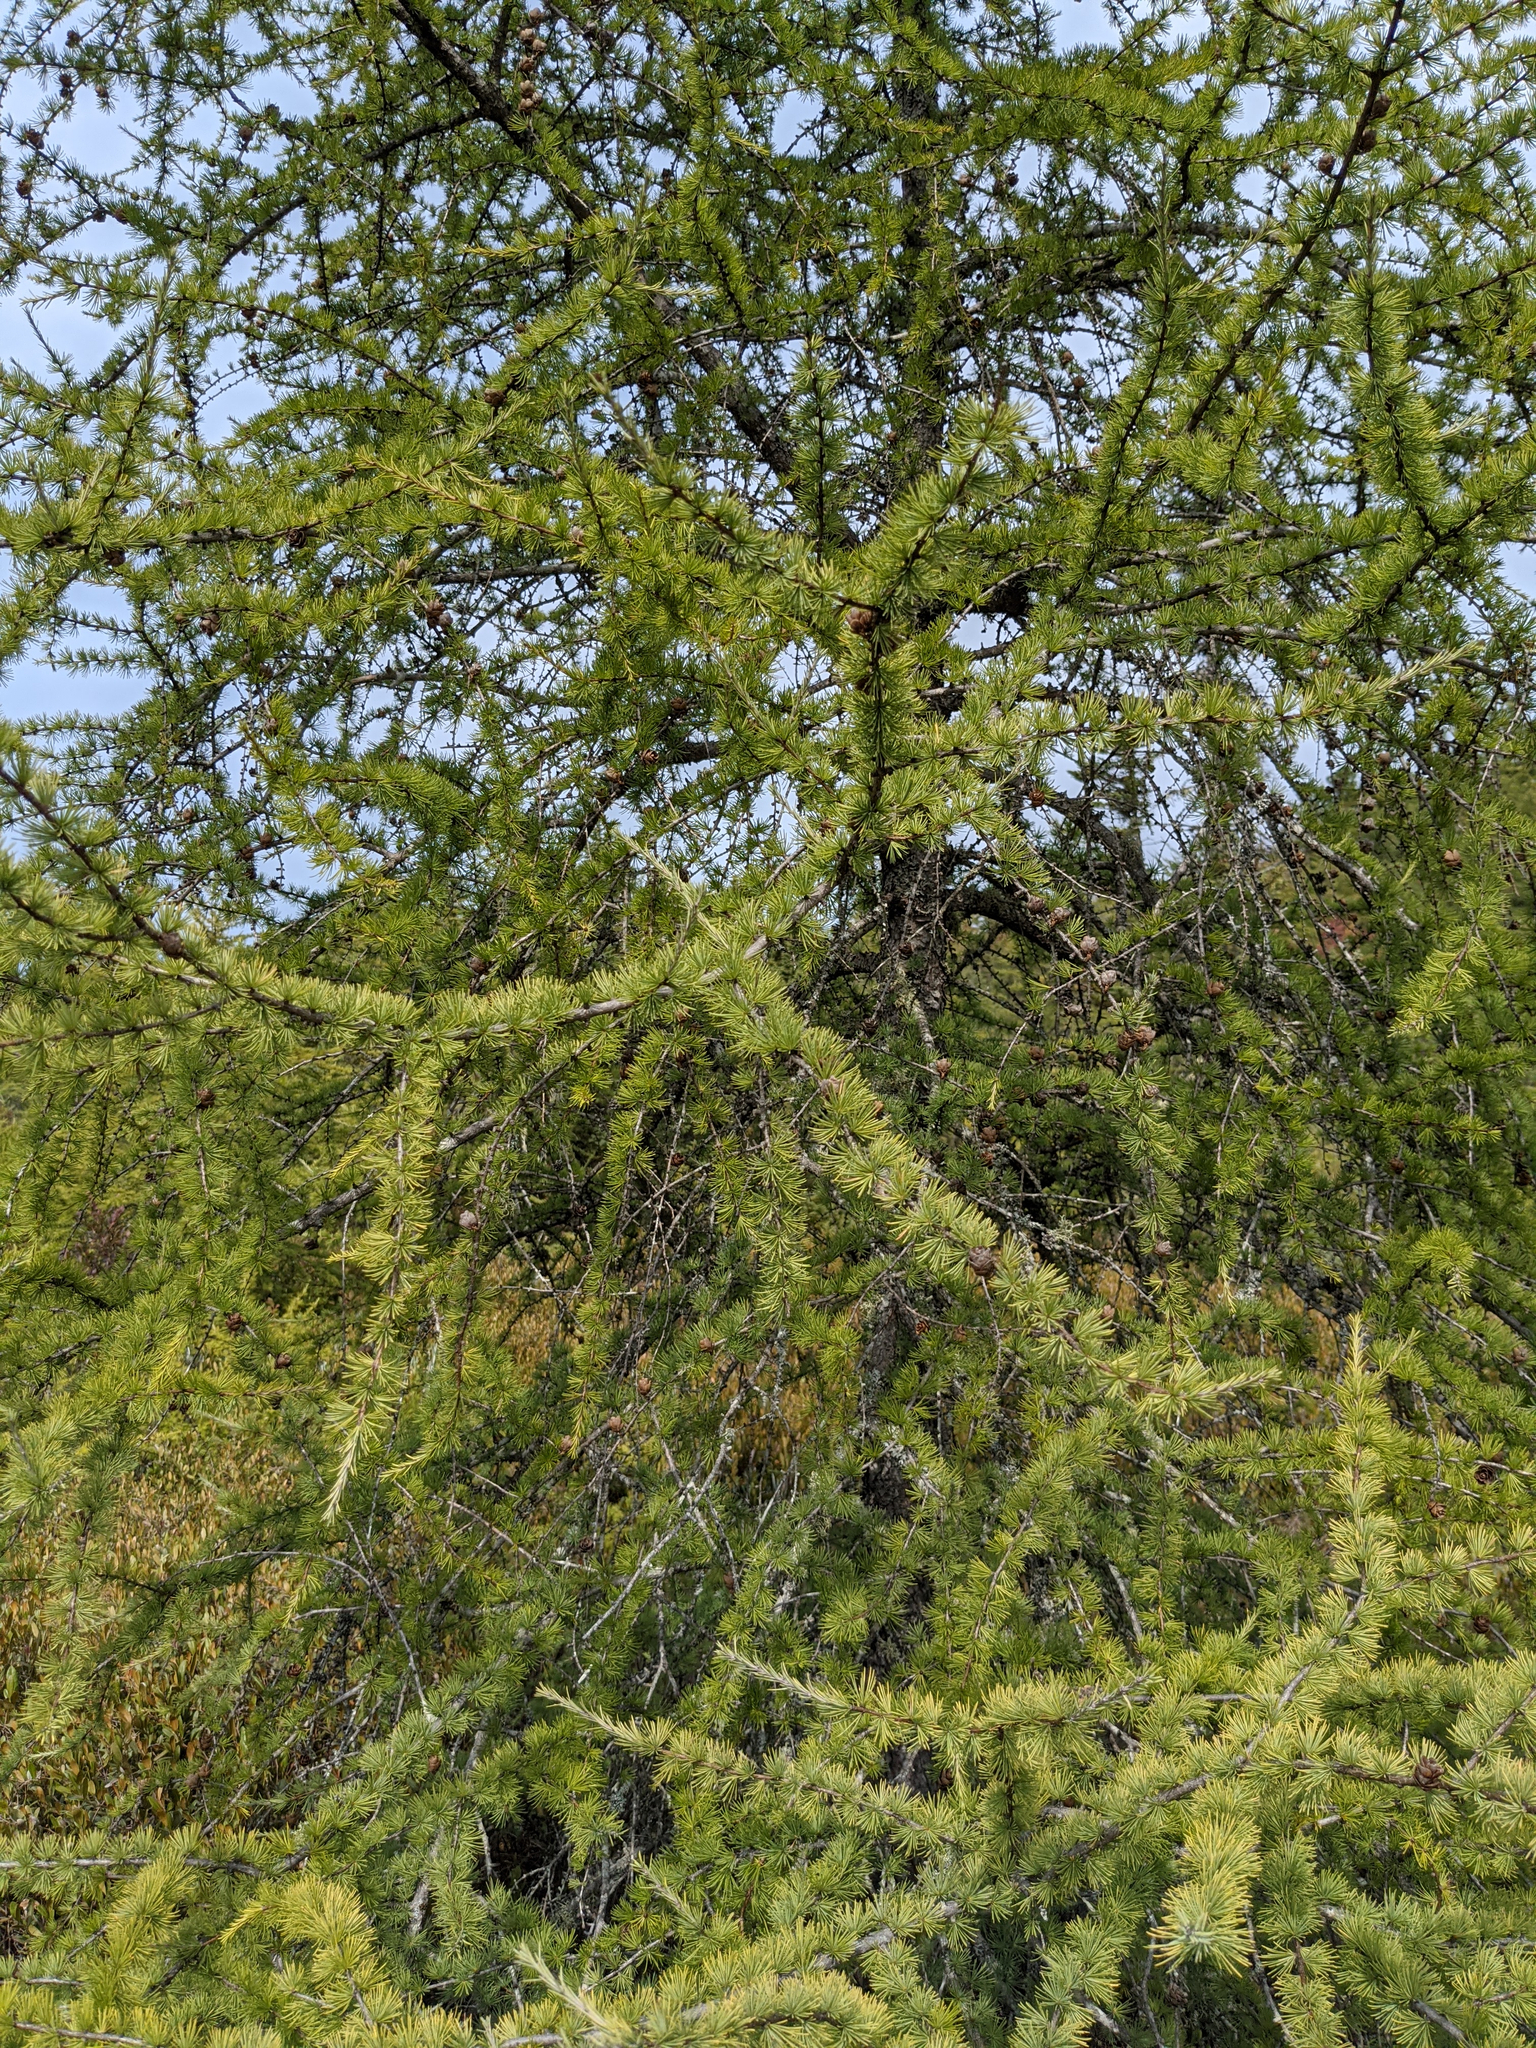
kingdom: Plantae
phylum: Tracheophyta
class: Pinopsida
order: Pinales
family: Pinaceae
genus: Larix
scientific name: Larix laricina
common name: American larch
